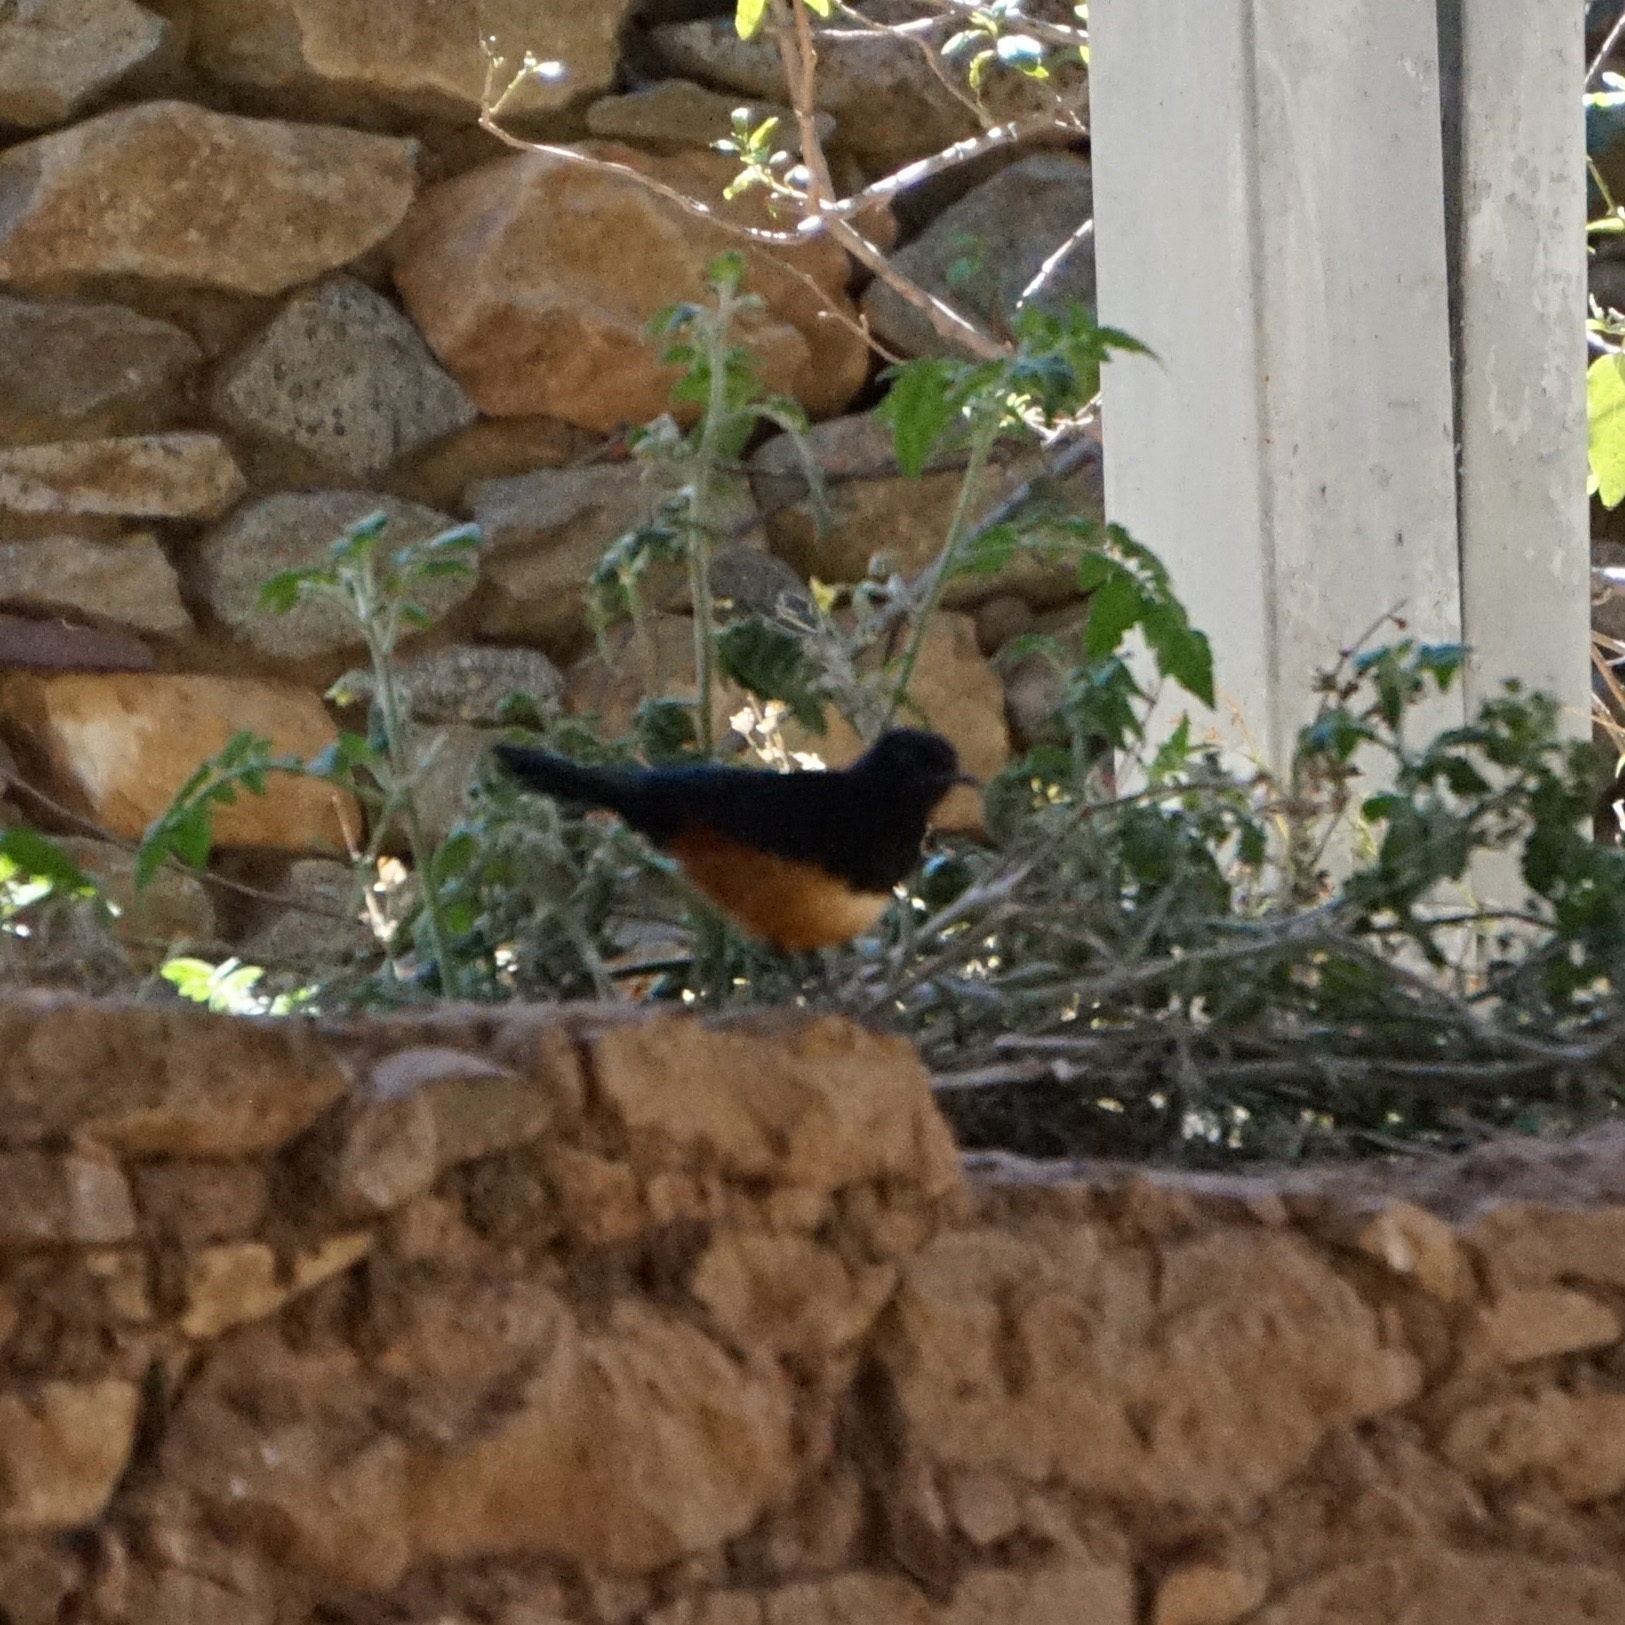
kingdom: Animalia
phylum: Chordata
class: Aves
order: Passeriformes
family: Muscicapidae
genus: Thamnolaea
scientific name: Thamnolaea cinnamomeiventris
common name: Mocking cliff chat
